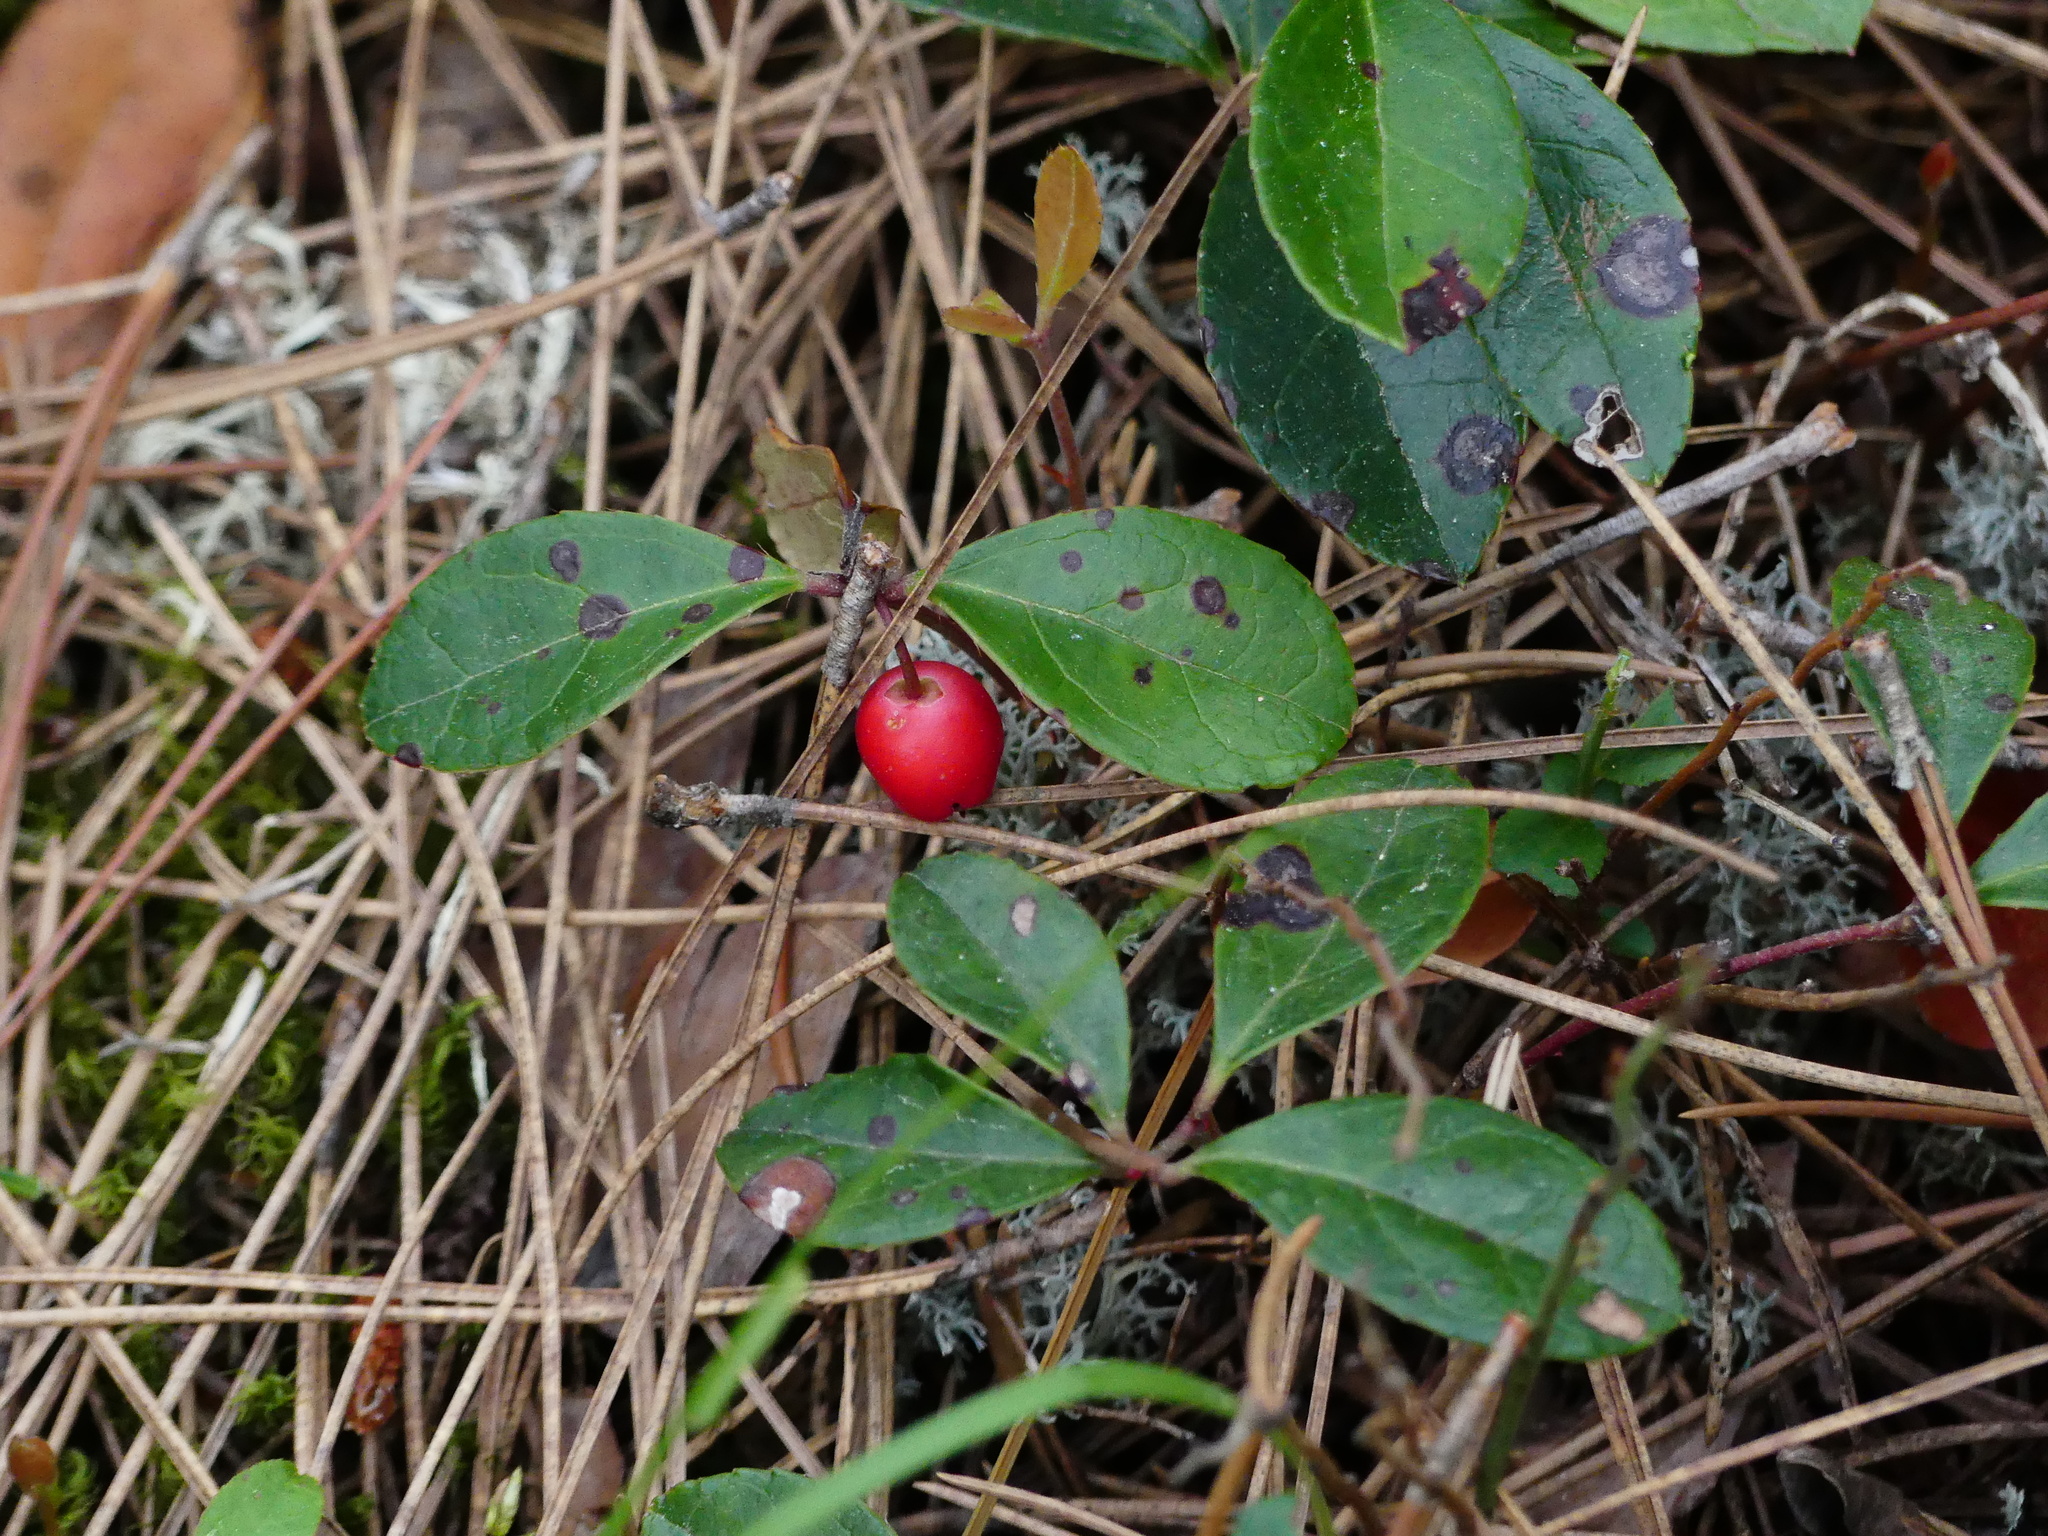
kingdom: Plantae
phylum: Tracheophyta
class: Magnoliopsida
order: Ericales
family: Ericaceae
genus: Gaultheria
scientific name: Gaultheria procumbens
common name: Checkerberry
